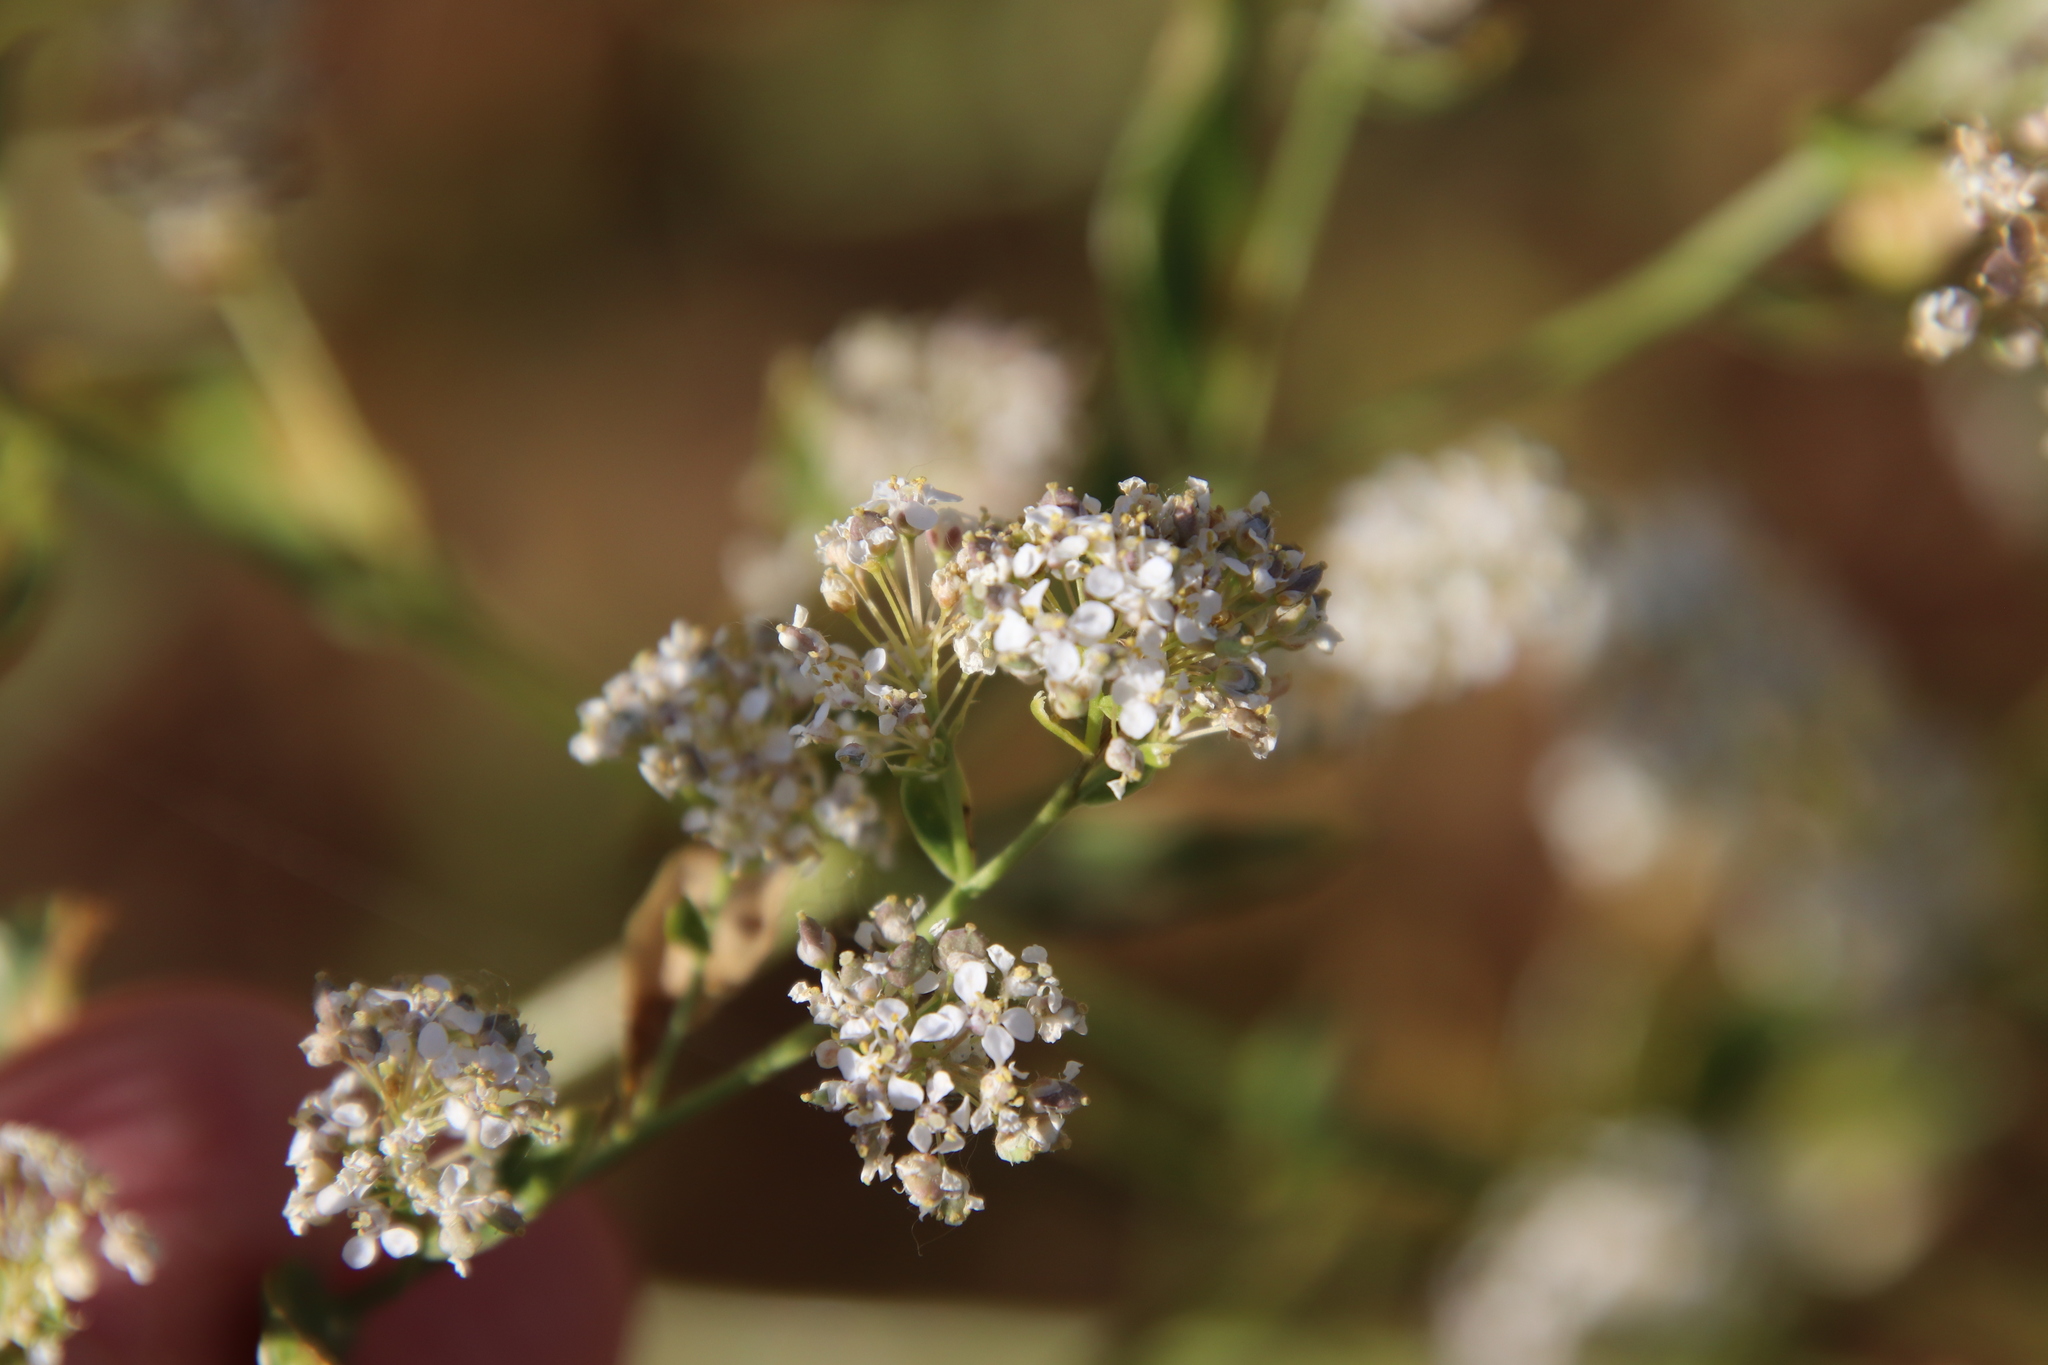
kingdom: Plantae
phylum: Tracheophyta
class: Magnoliopsida
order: Brassicales
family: Brassicaceae
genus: Lepidium
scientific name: Lepidium latifolium
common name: Dittander
